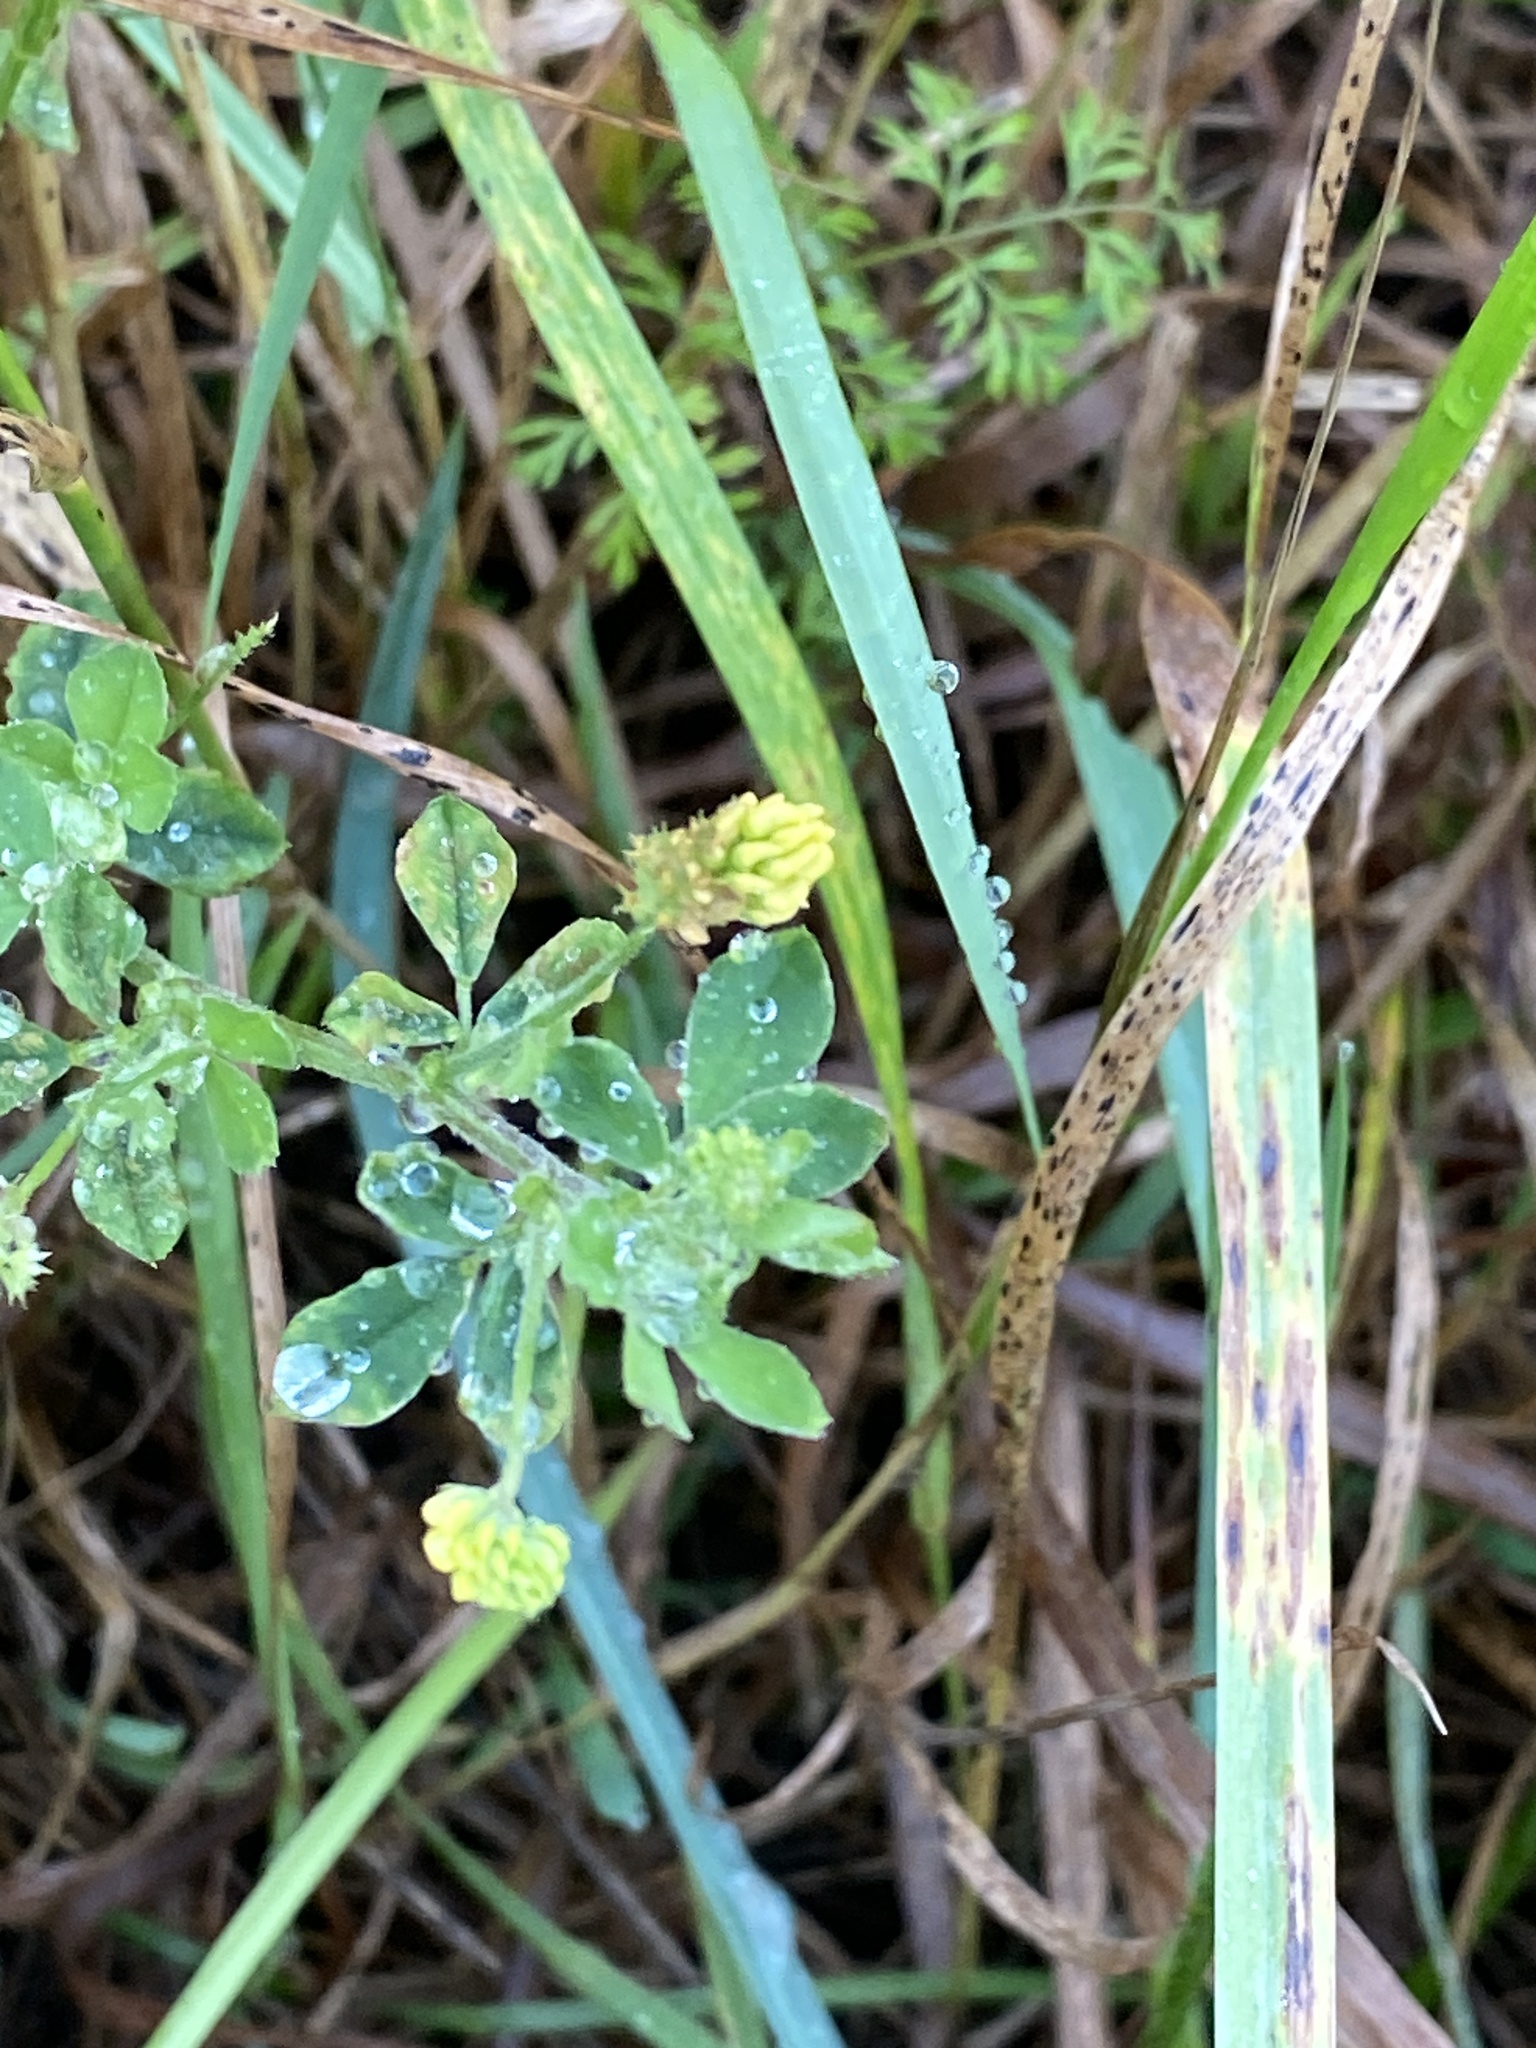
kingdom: Plantae
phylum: Tracheophyta
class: Magnoliopsida
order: Fabales
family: Fabaceae
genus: Medicago
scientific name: Medicago lupulina
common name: Black medick
